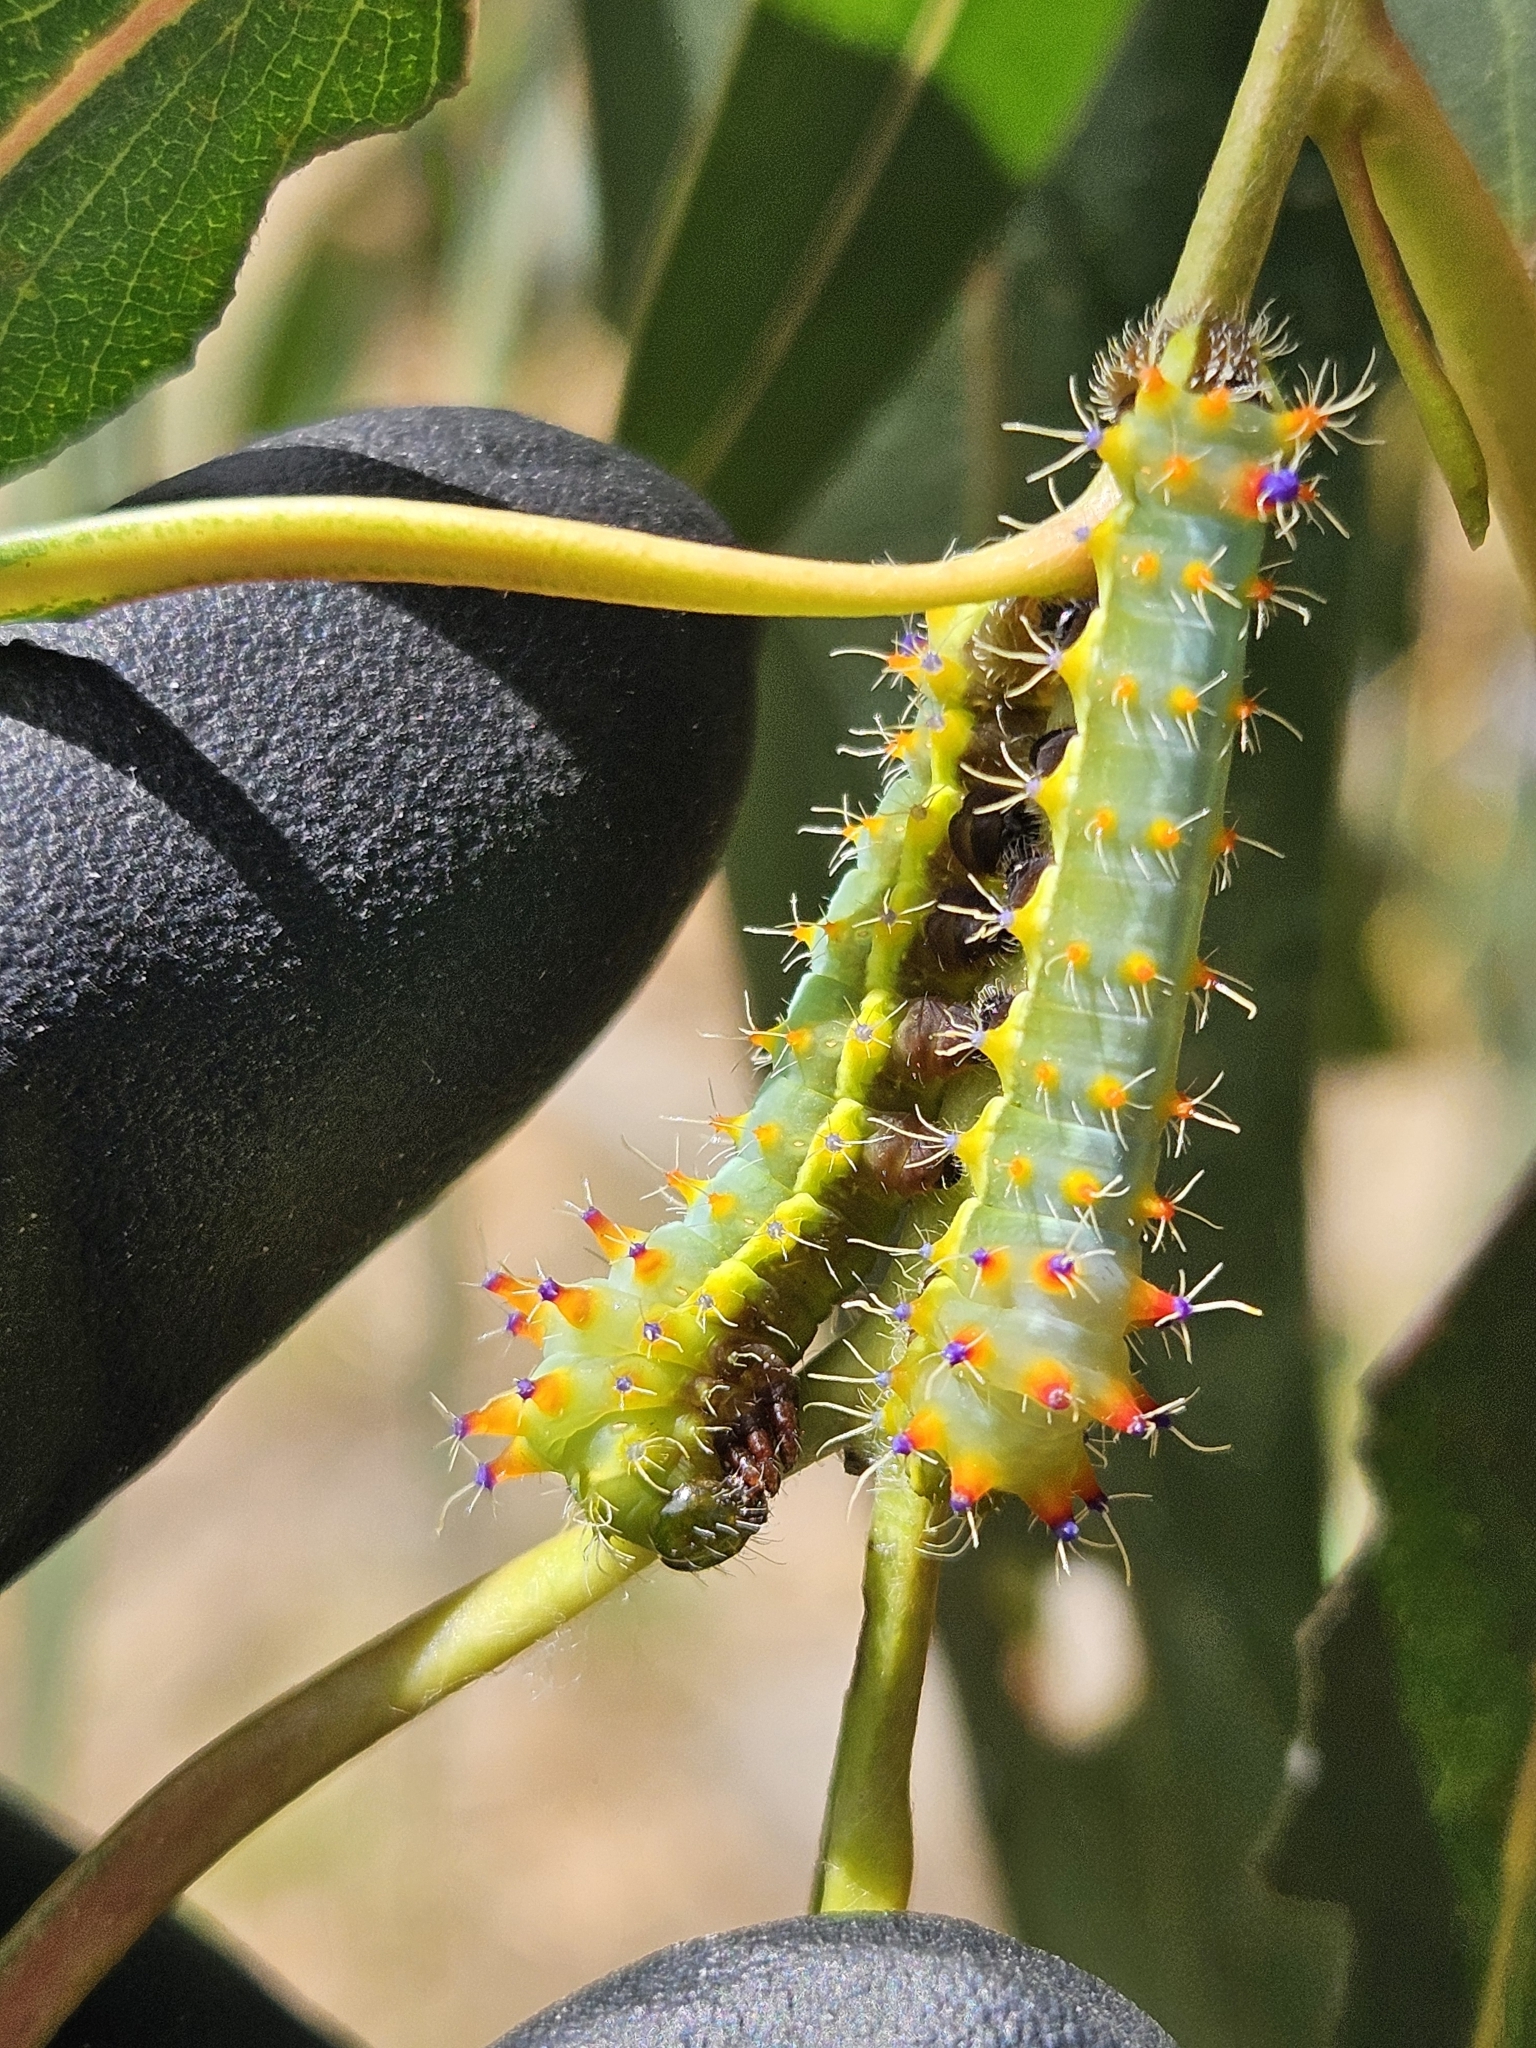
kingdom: Animalia
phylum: Arthropoda
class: Insecta
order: Lepidoptera
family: Saturniidae
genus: Opodiphthera
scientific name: Opodiphthera
